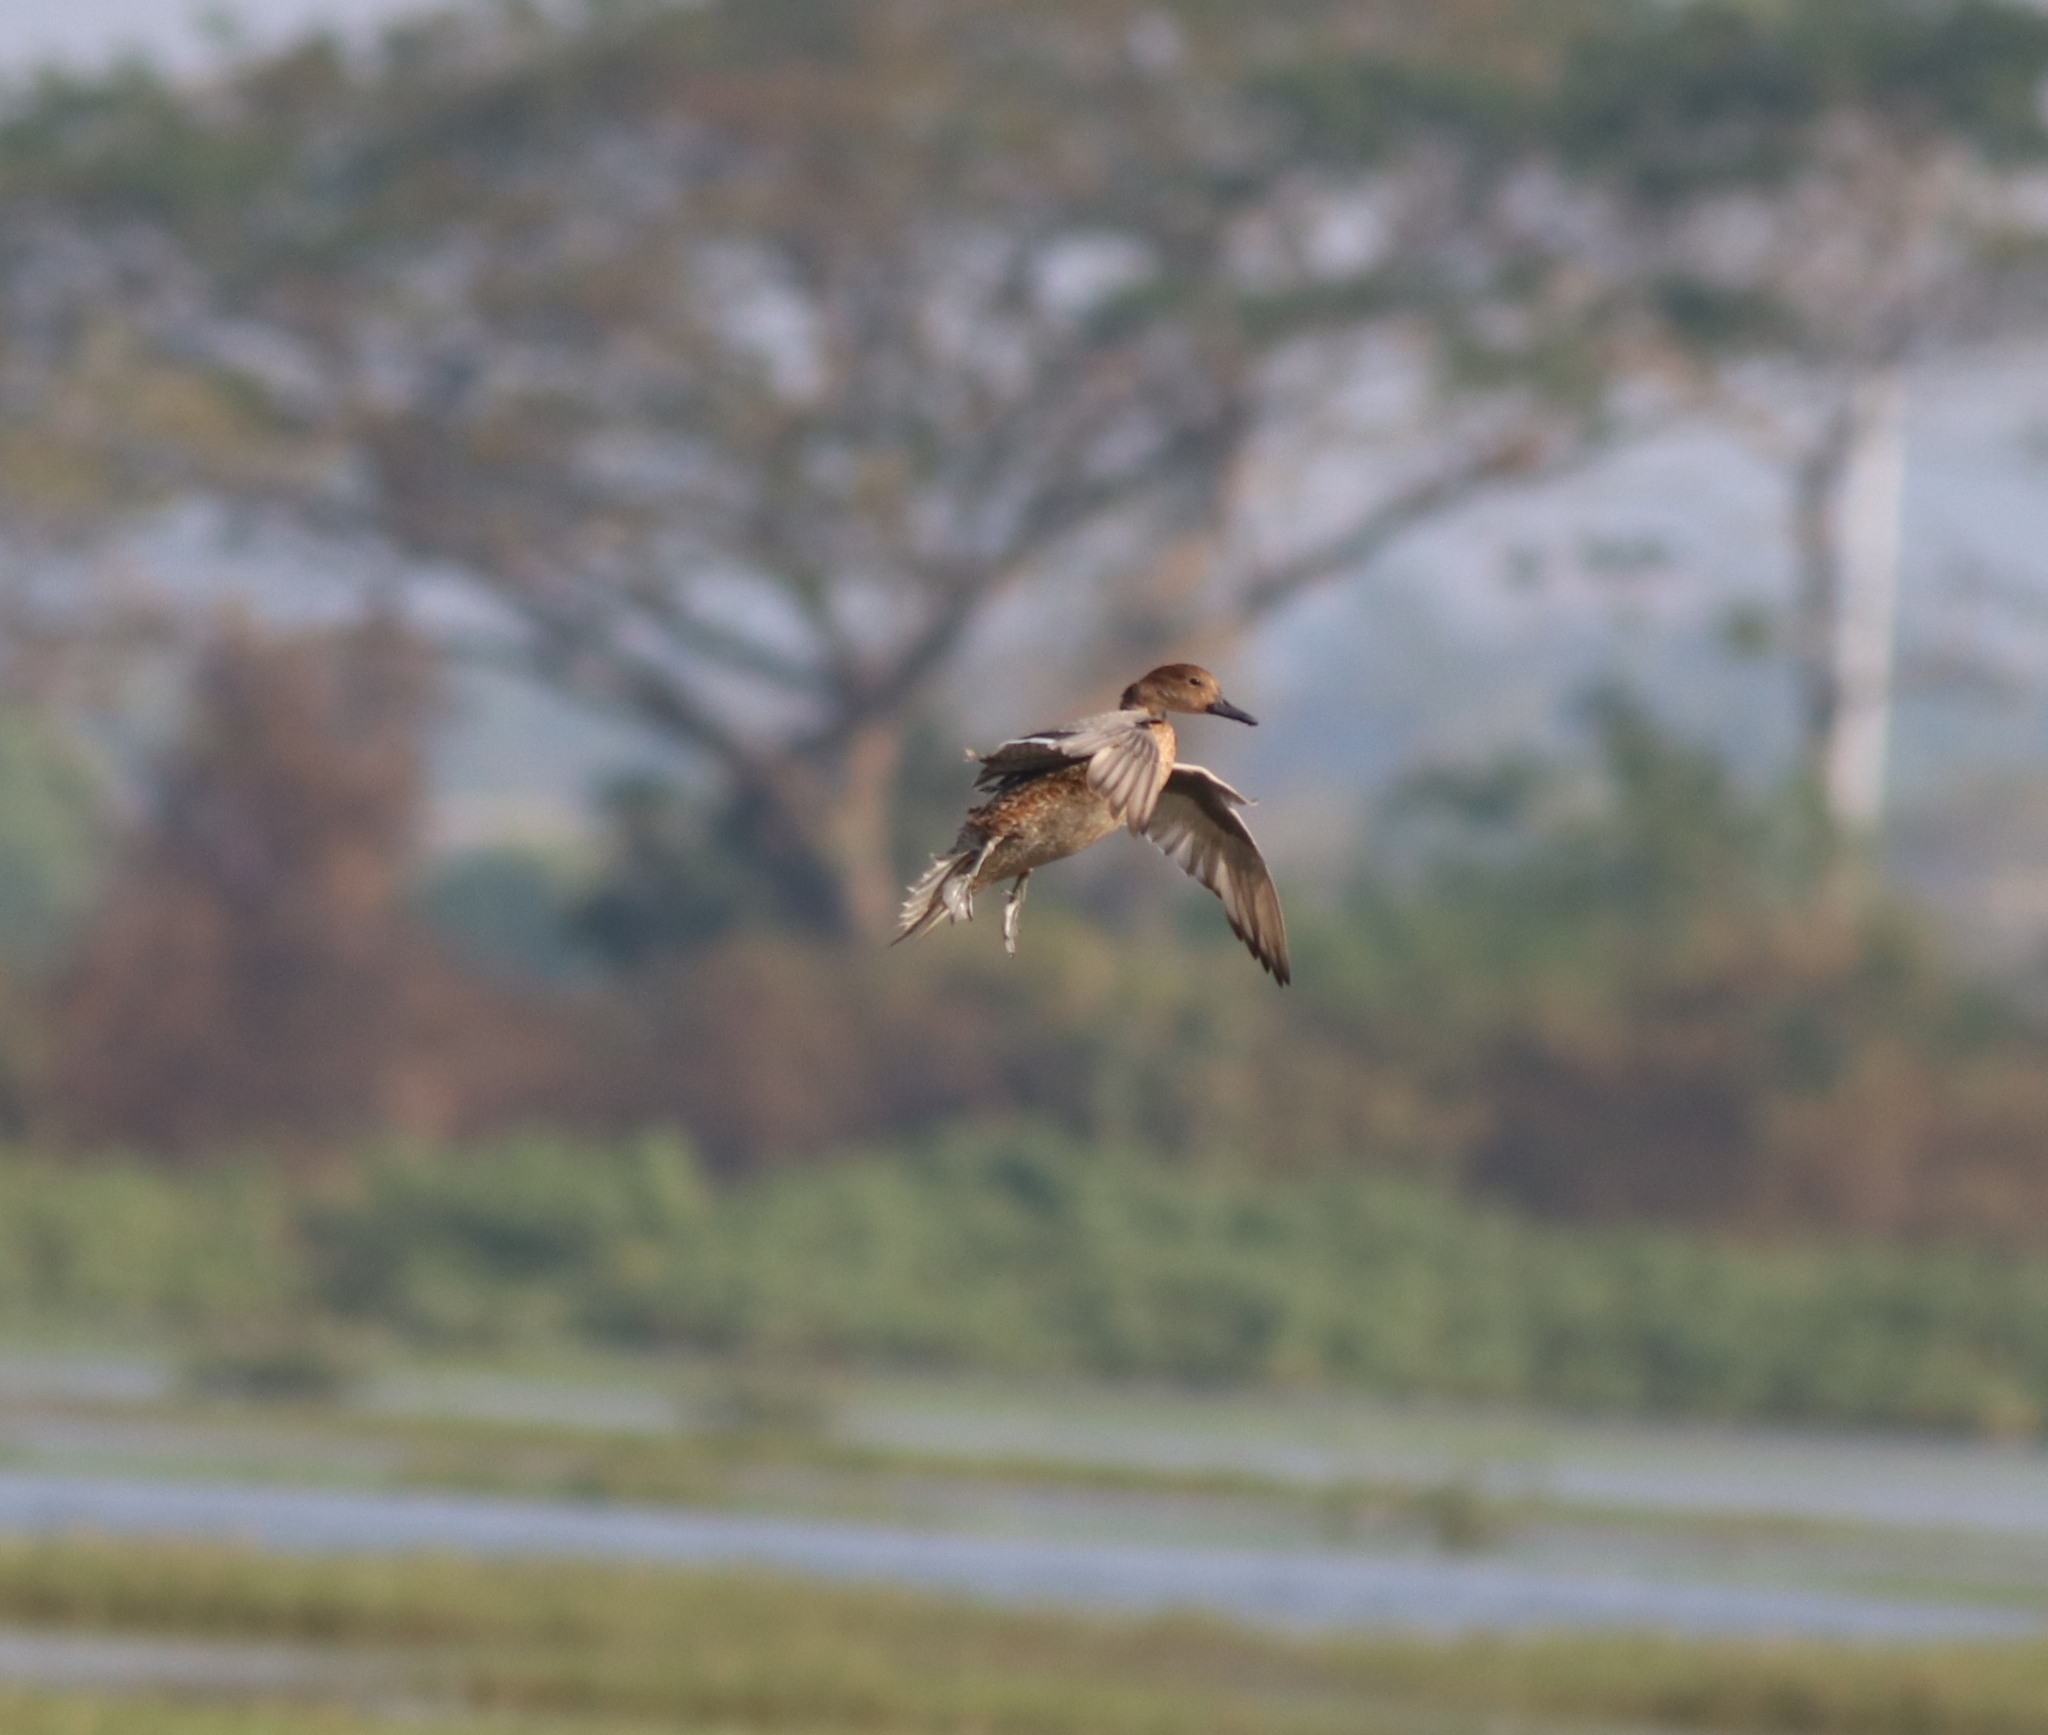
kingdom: Animalia
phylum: Chordata
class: Aves
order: Anseriformes
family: Anatidae
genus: Anas
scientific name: Anas acuta
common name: Northern pintail
